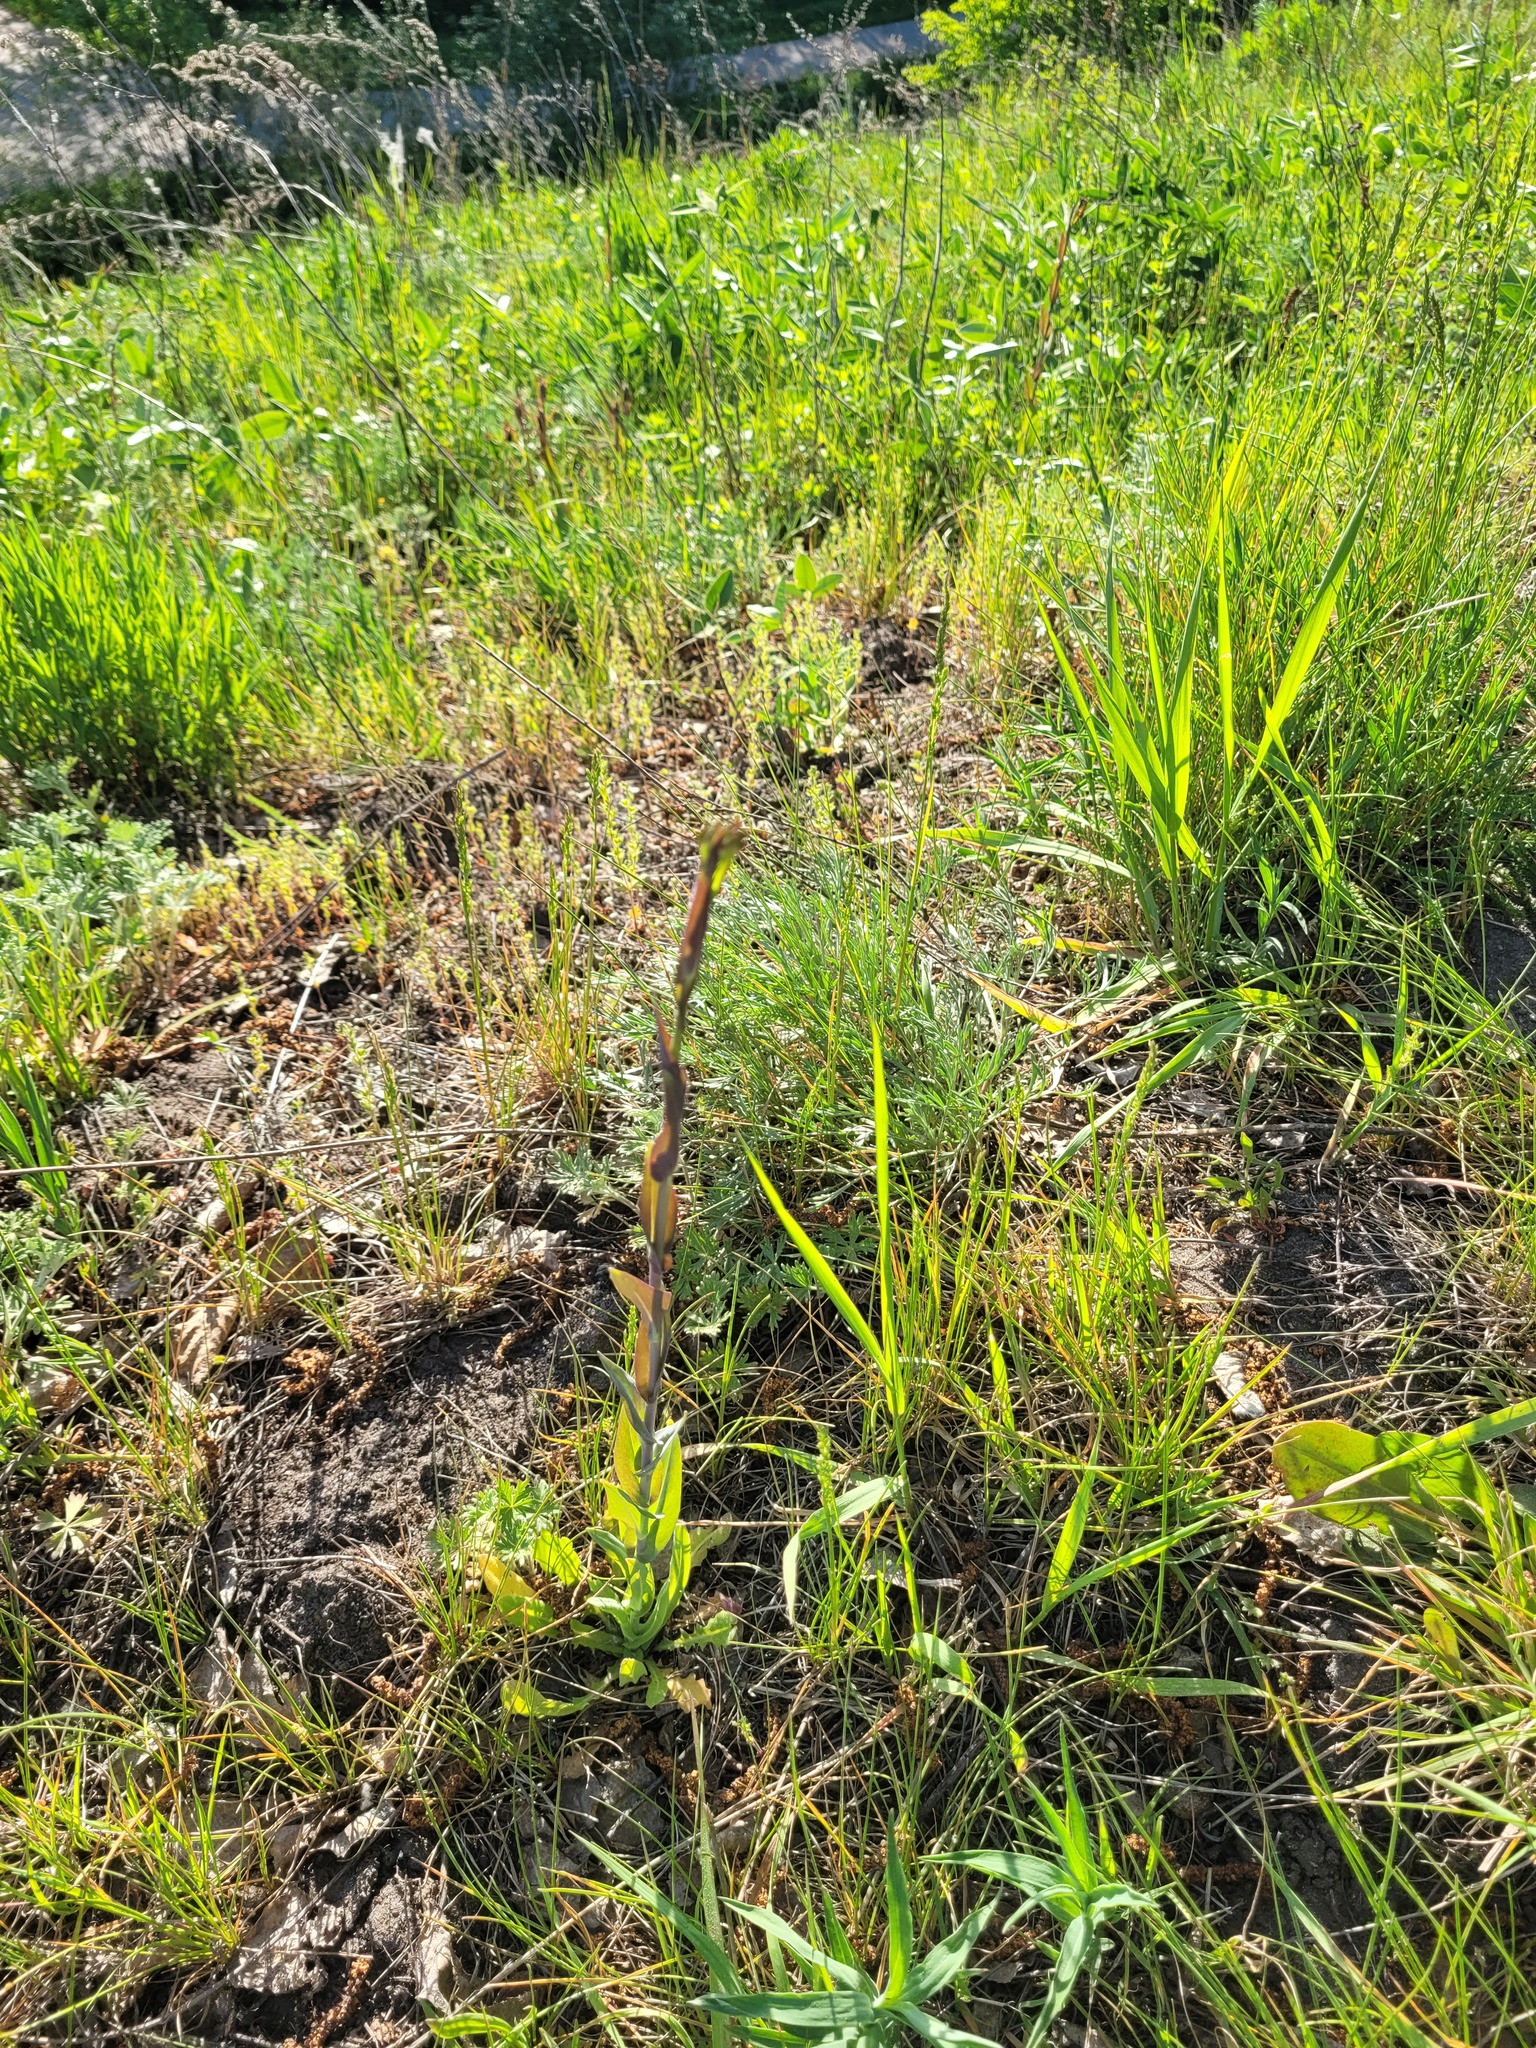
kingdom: Plantae
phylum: Tracheophyta
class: Magnoliopsida
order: Brassicales
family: Brassicaceae
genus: Turritis
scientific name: Turritis glabra
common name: Tower rockcress
